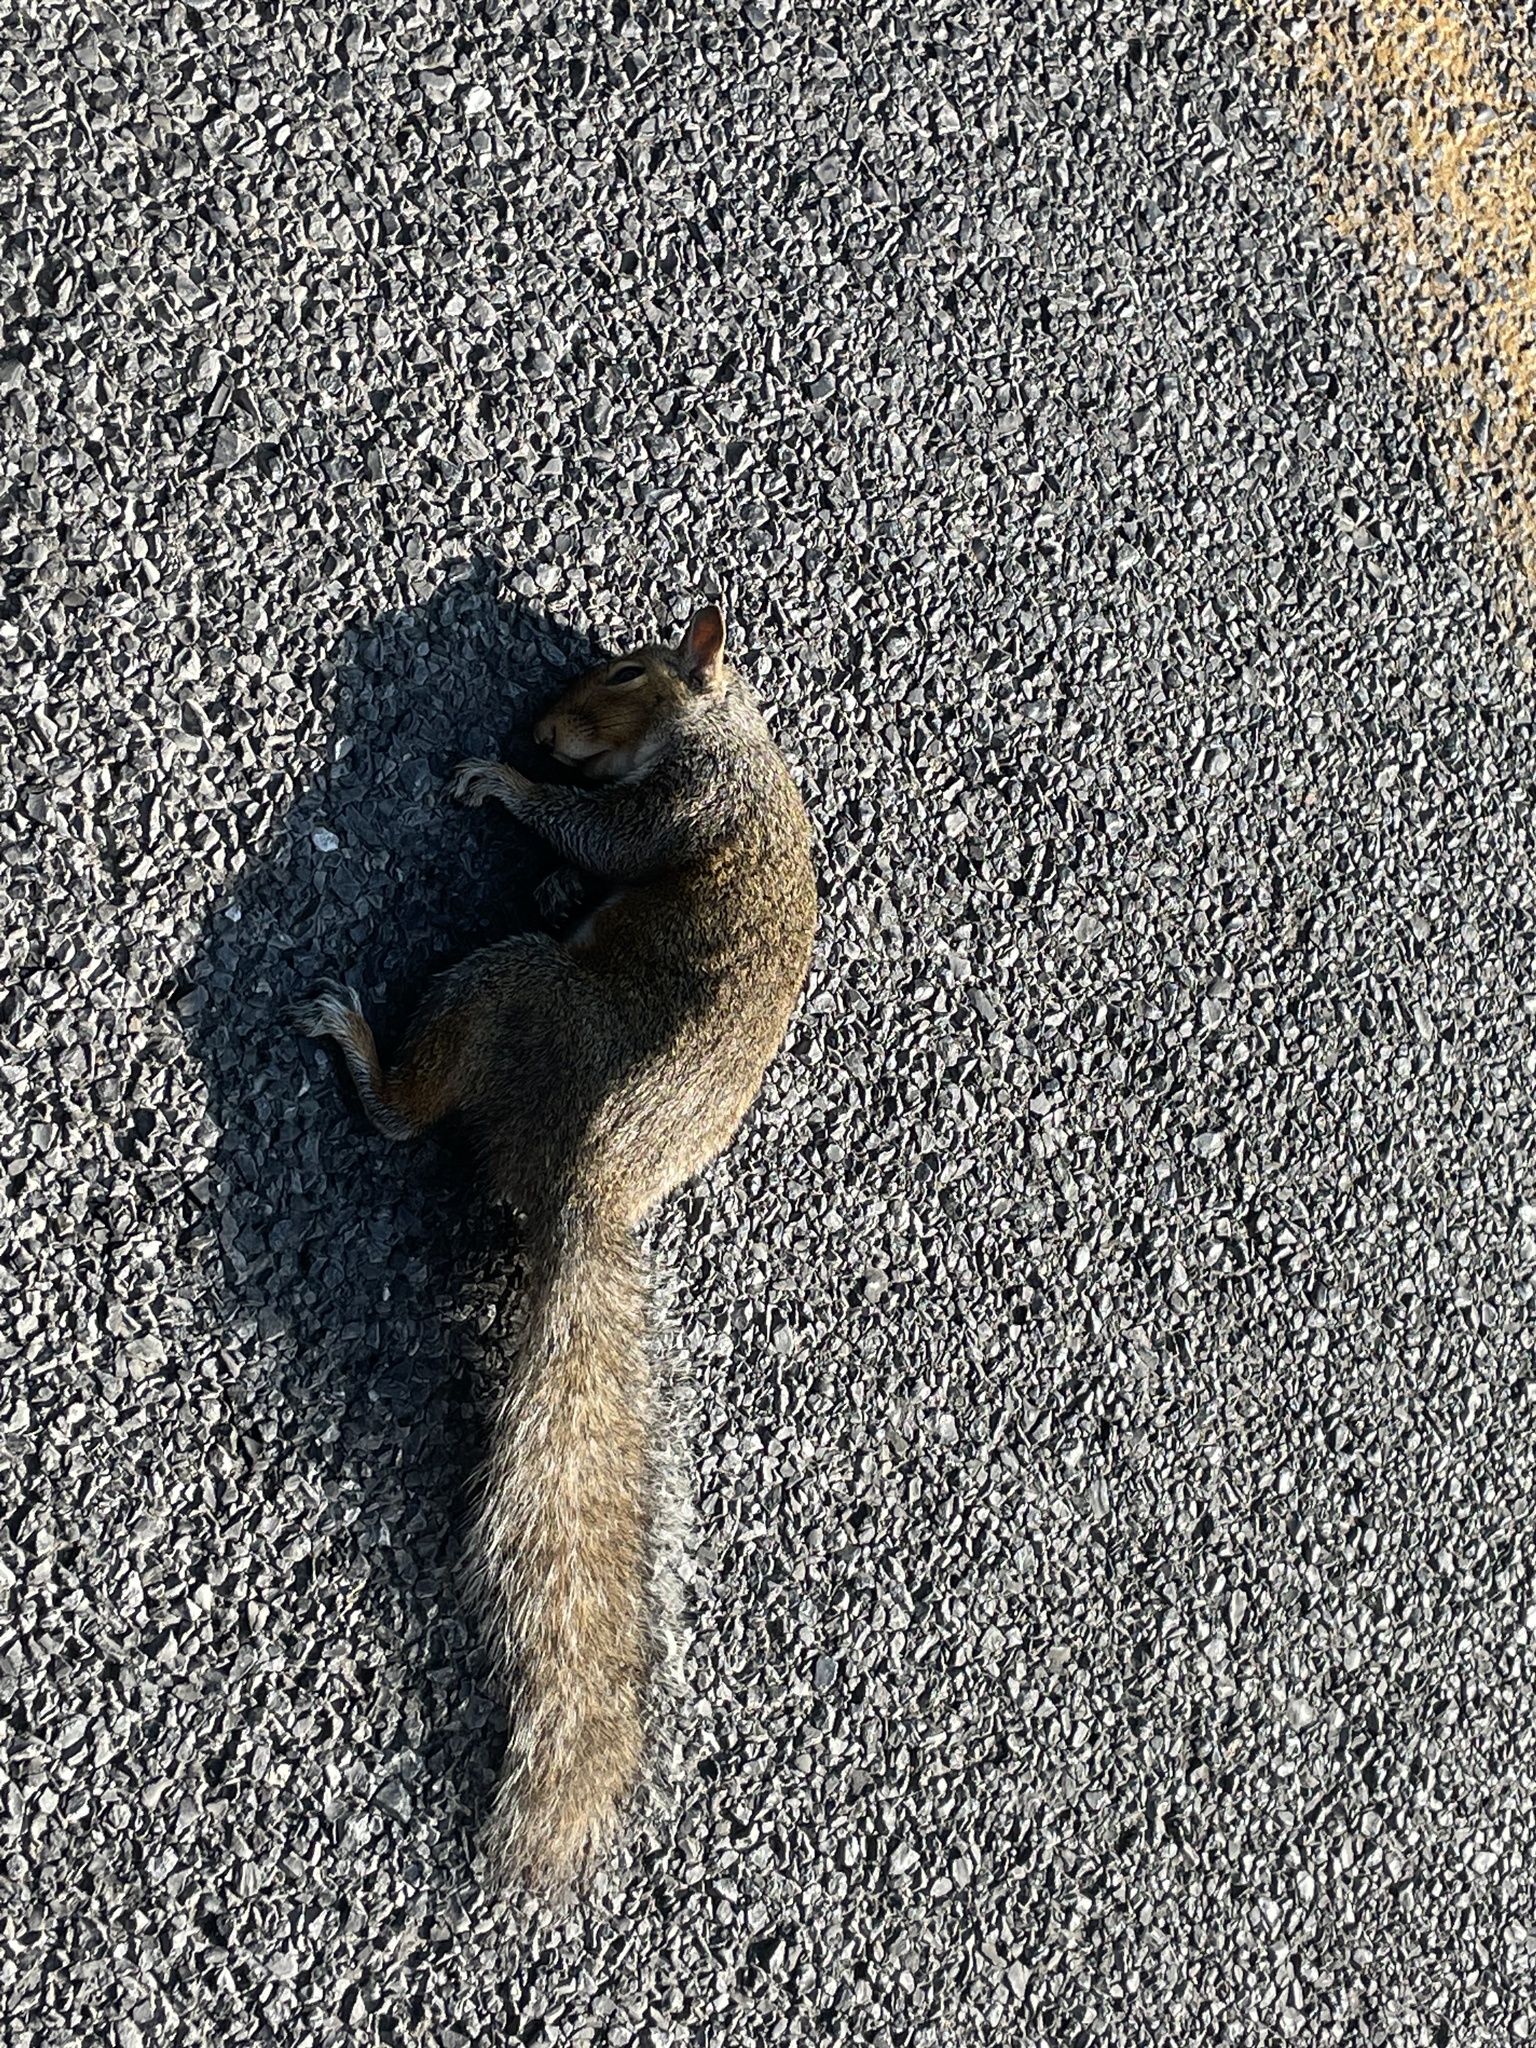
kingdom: Animalia
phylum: Chordata
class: Mammalia
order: Rodentia
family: Sciuridae
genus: Sciurus
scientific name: Sciurus carolinensis
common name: Eastern gray squirrel
